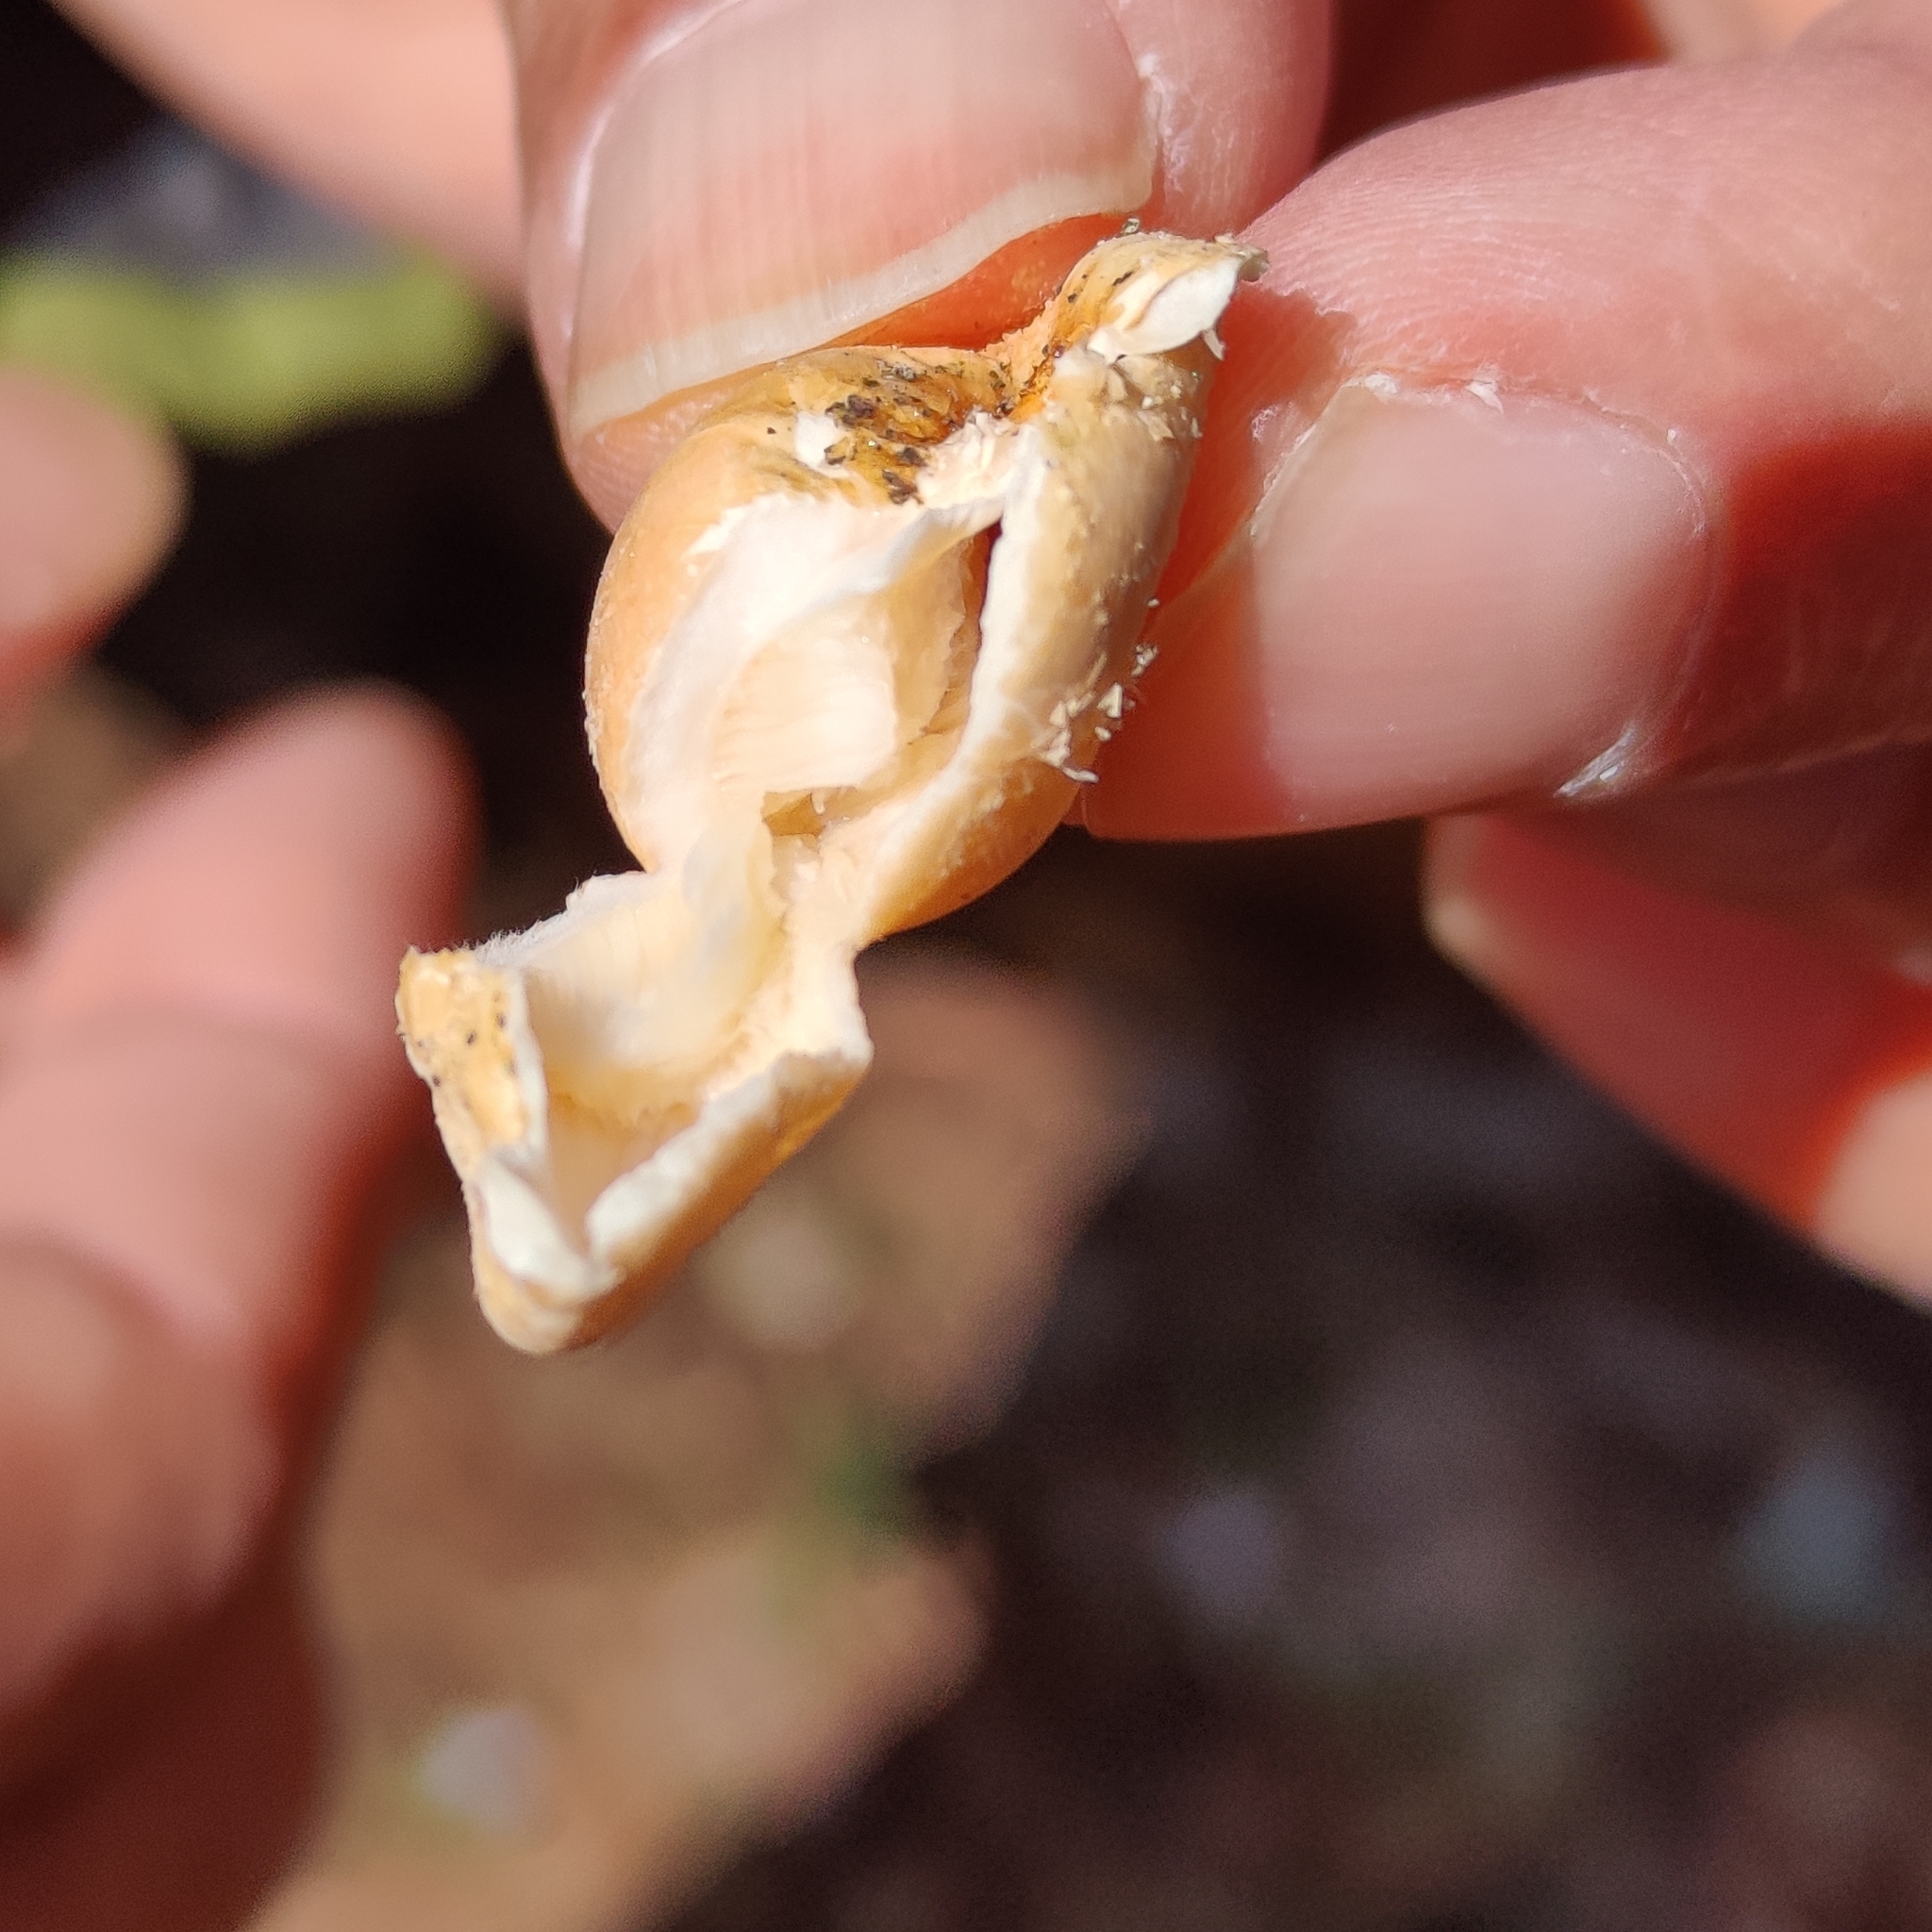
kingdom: Fungi
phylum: Basidiomycota
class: Agaricomycetes
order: Polyporales
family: Polyporaceae
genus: Cryptoporus
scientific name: Cryptoporus volvatus
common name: Veiled polypore
